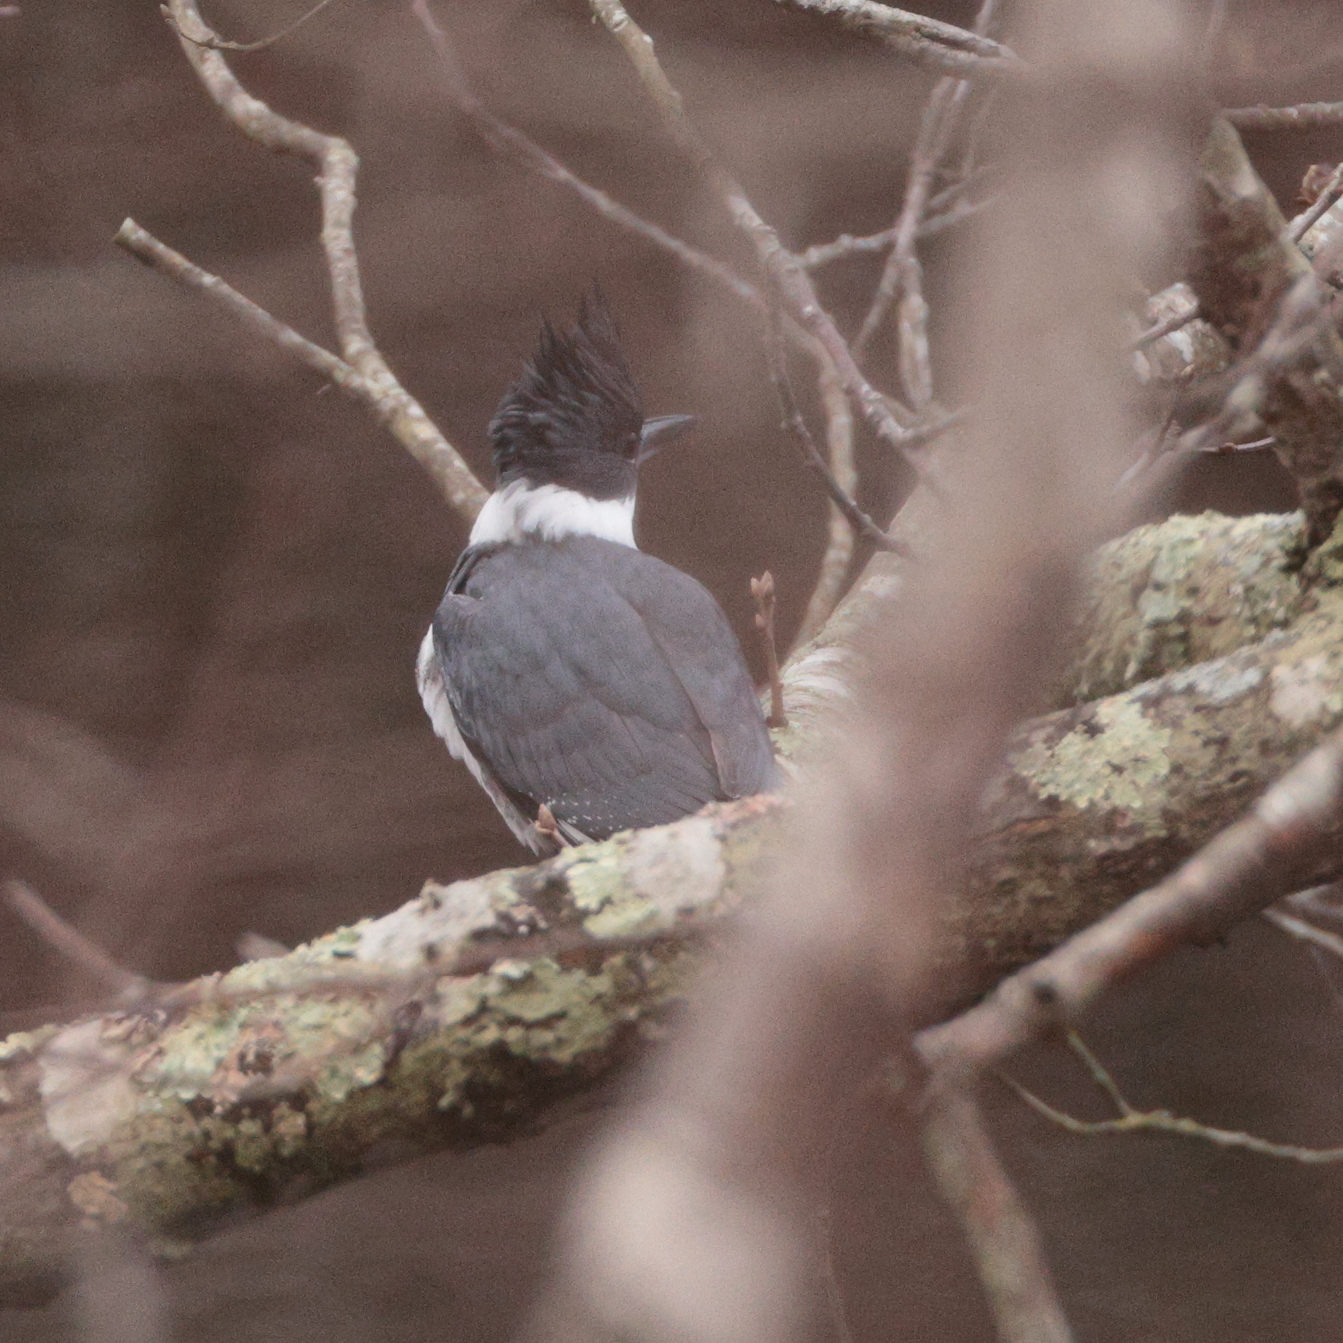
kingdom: Animalia
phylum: Chordata
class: Aves
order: Coraciiformes
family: Alcedinidae
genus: Megaceryle
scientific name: Megaceryle alcyon
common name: Belted kingfisher
